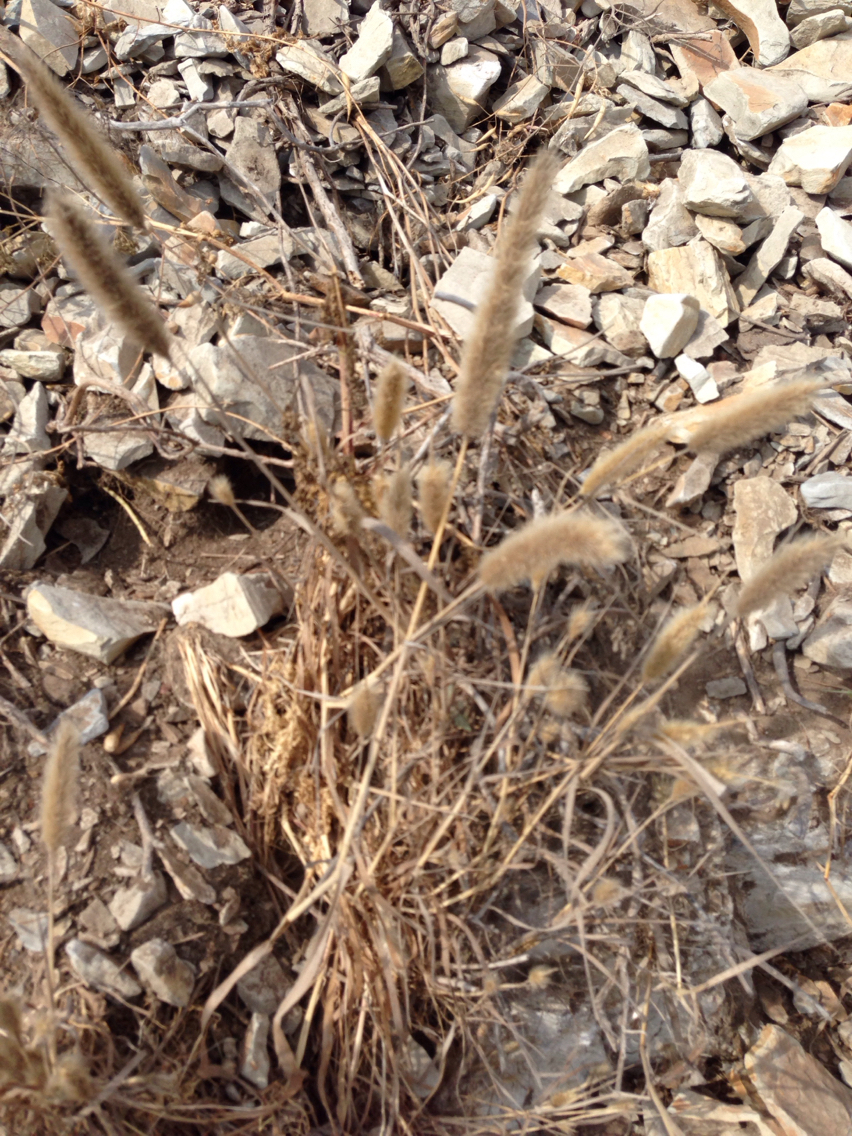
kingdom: Plantae
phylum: Tracheophyta
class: Liliopsida
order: Poales
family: Poaceae
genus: Polypogon
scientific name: Polypogon monspeliensis
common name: Annual rabbitsfoot grass
